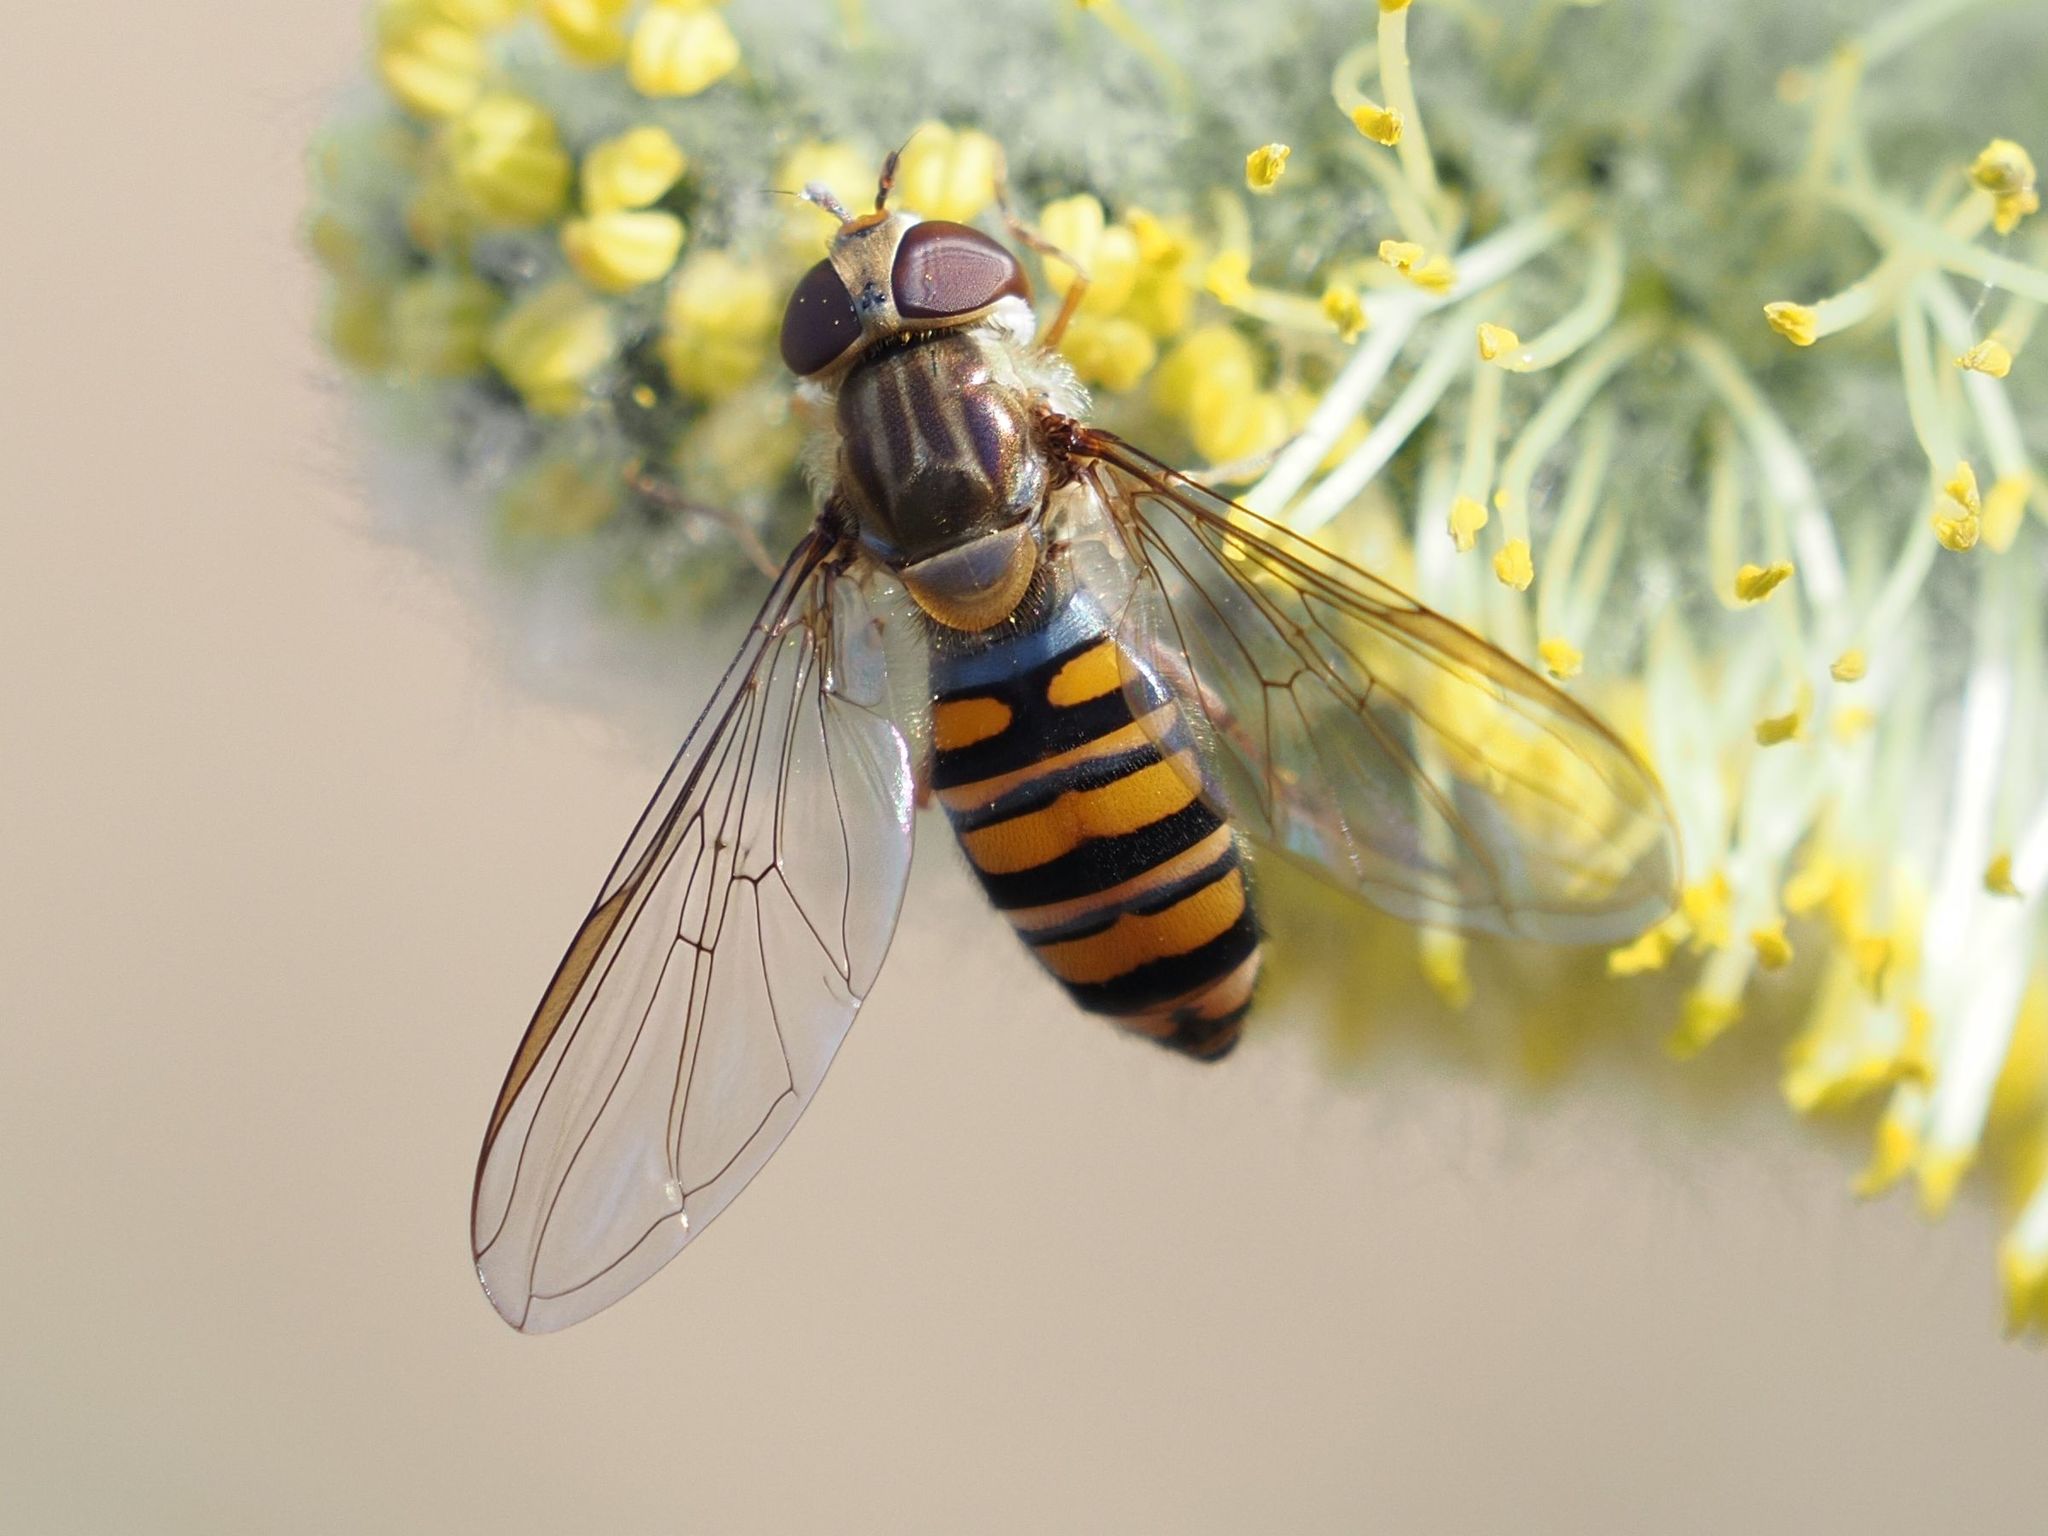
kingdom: Animalia
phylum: Arthropoda
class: Insecta
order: Diptera
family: Syrphidae
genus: Episyrphus
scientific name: Episyrphus balteatus
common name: Marmalade hoverfly
